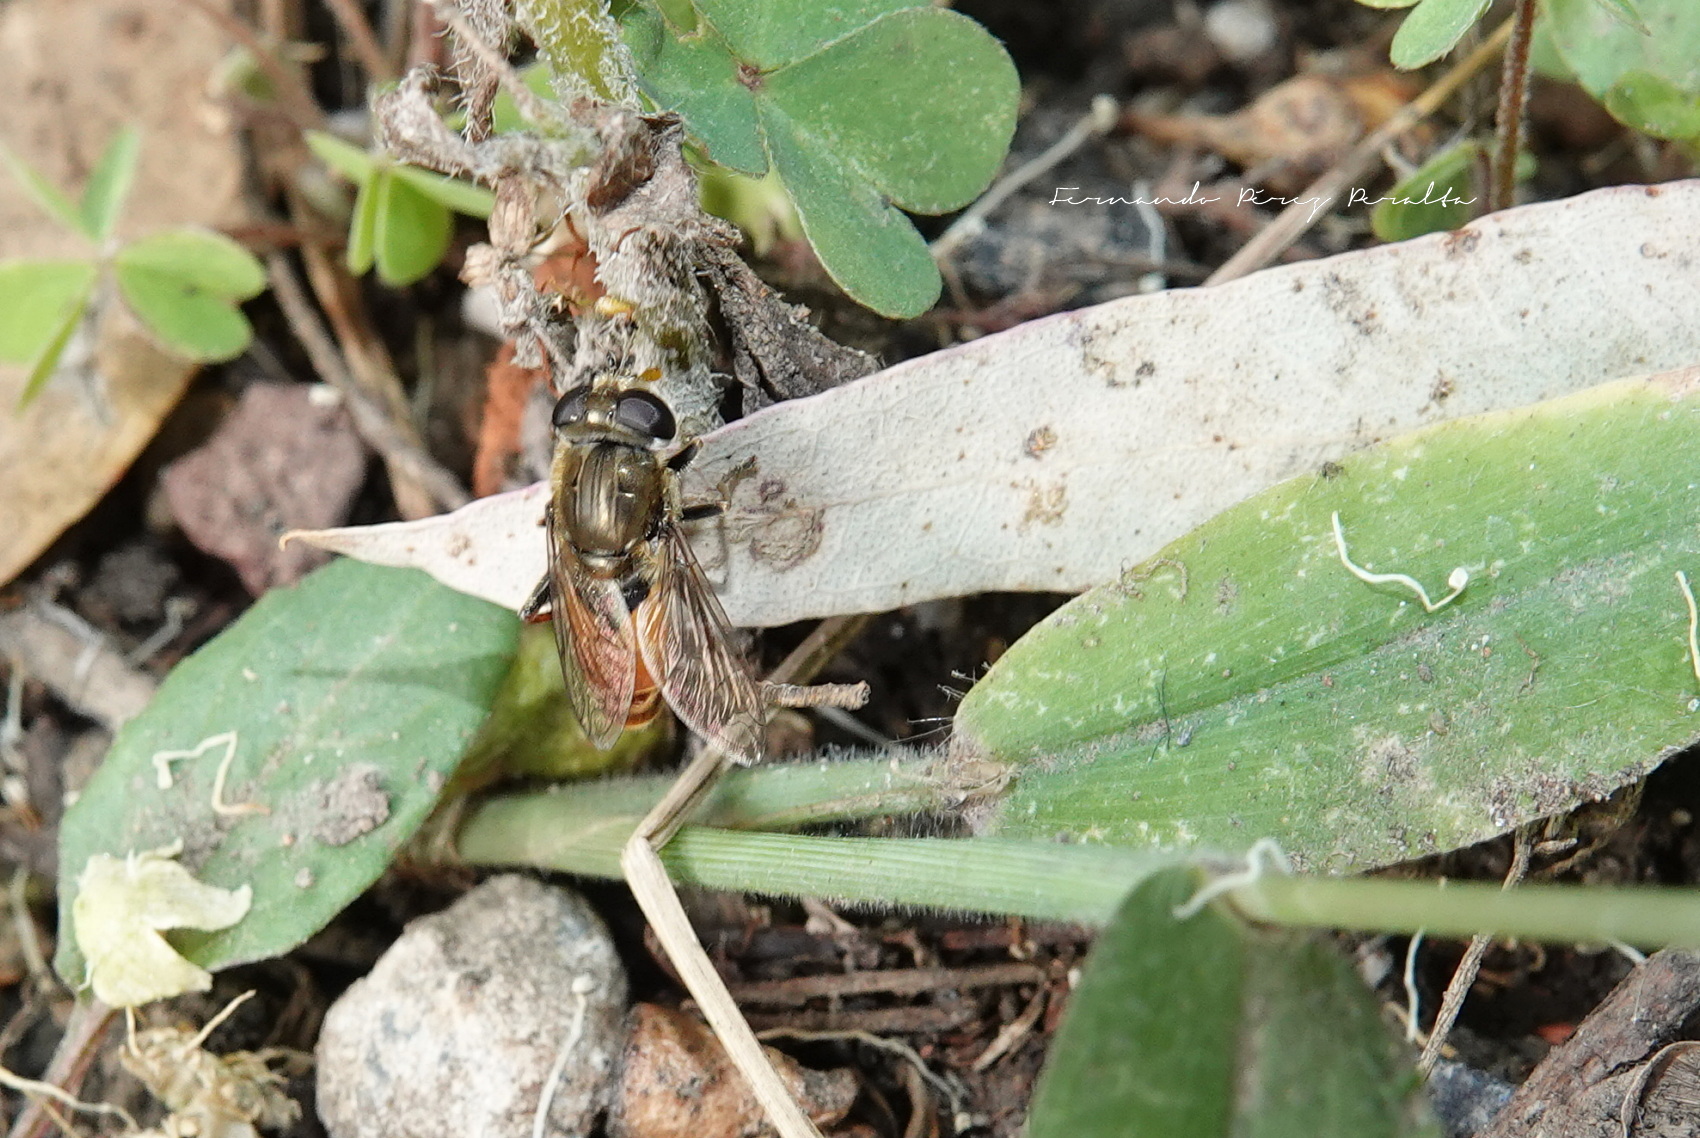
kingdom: Animalia
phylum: Arthropoda
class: Insecta
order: Diptera
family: Syrphidae
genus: Asemosyrphus
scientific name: Asemosyrphus
